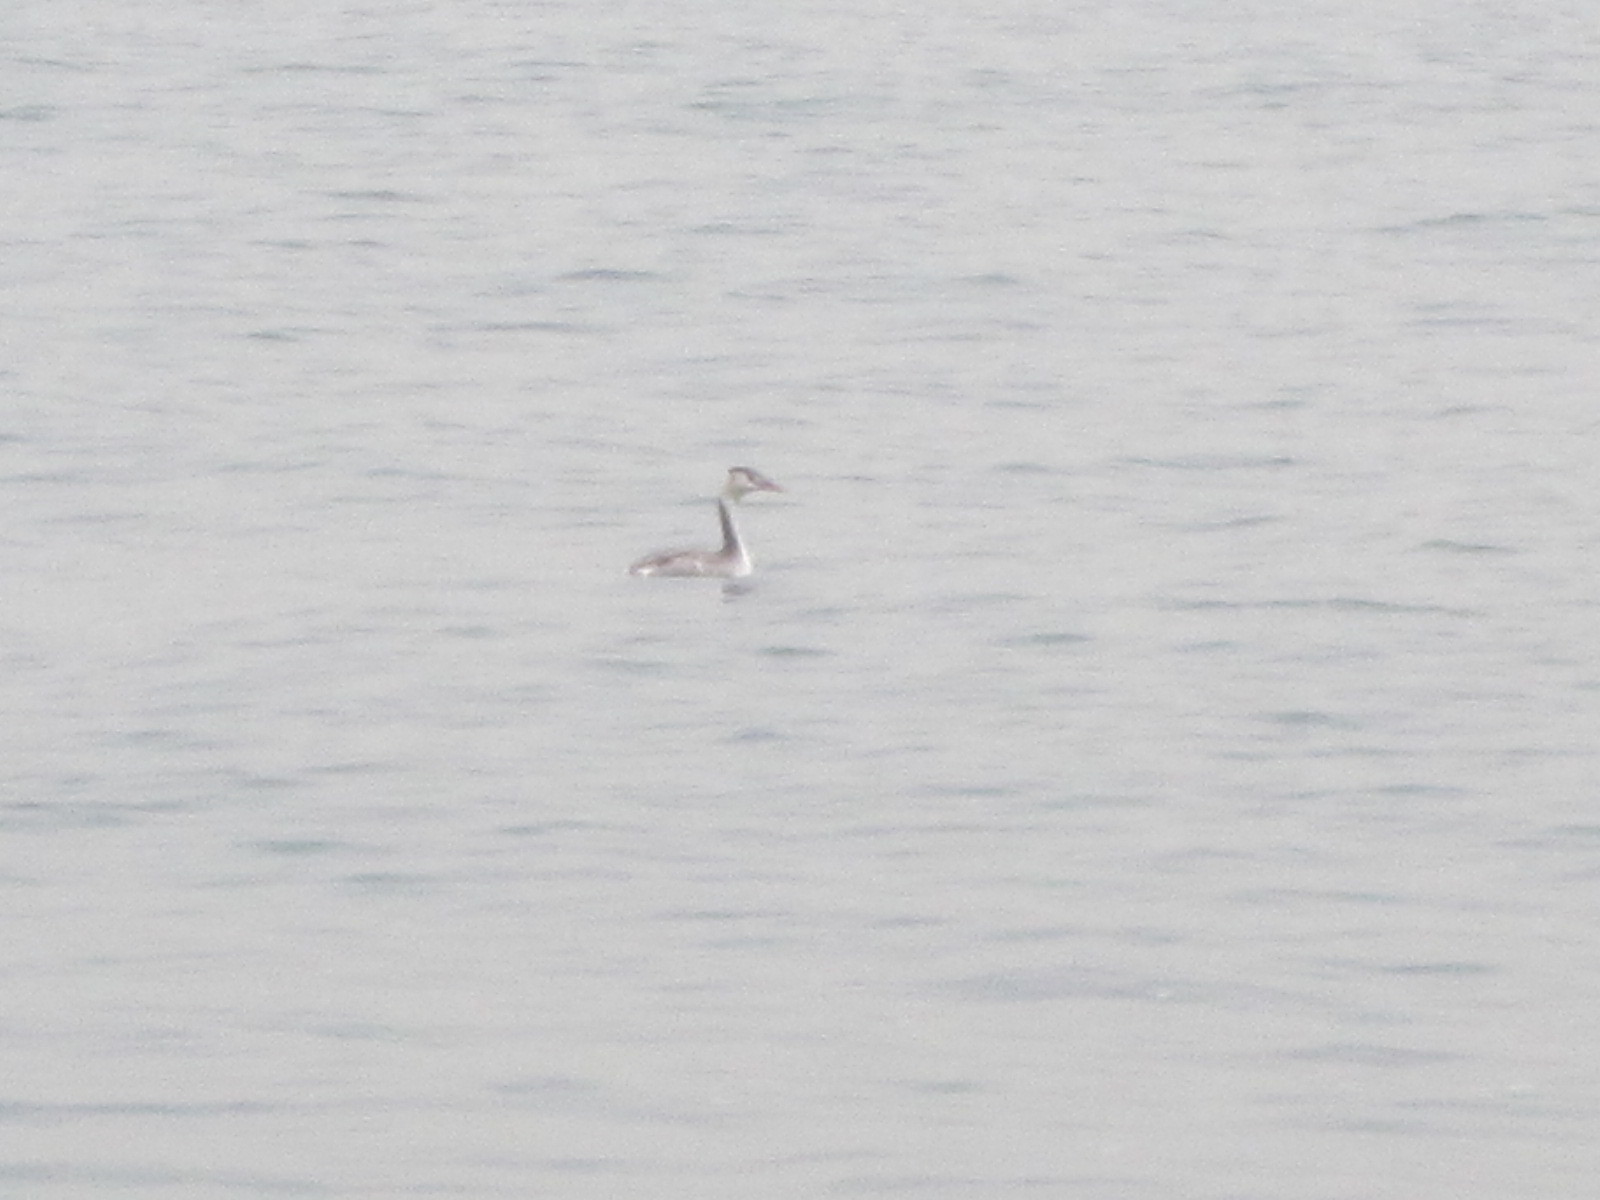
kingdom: Animalia
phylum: Chordata
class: Aves
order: Podicipediformes
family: Podicipedidae
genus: Podiceps
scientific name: Podiceps cristatus
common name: Great crested grebe
